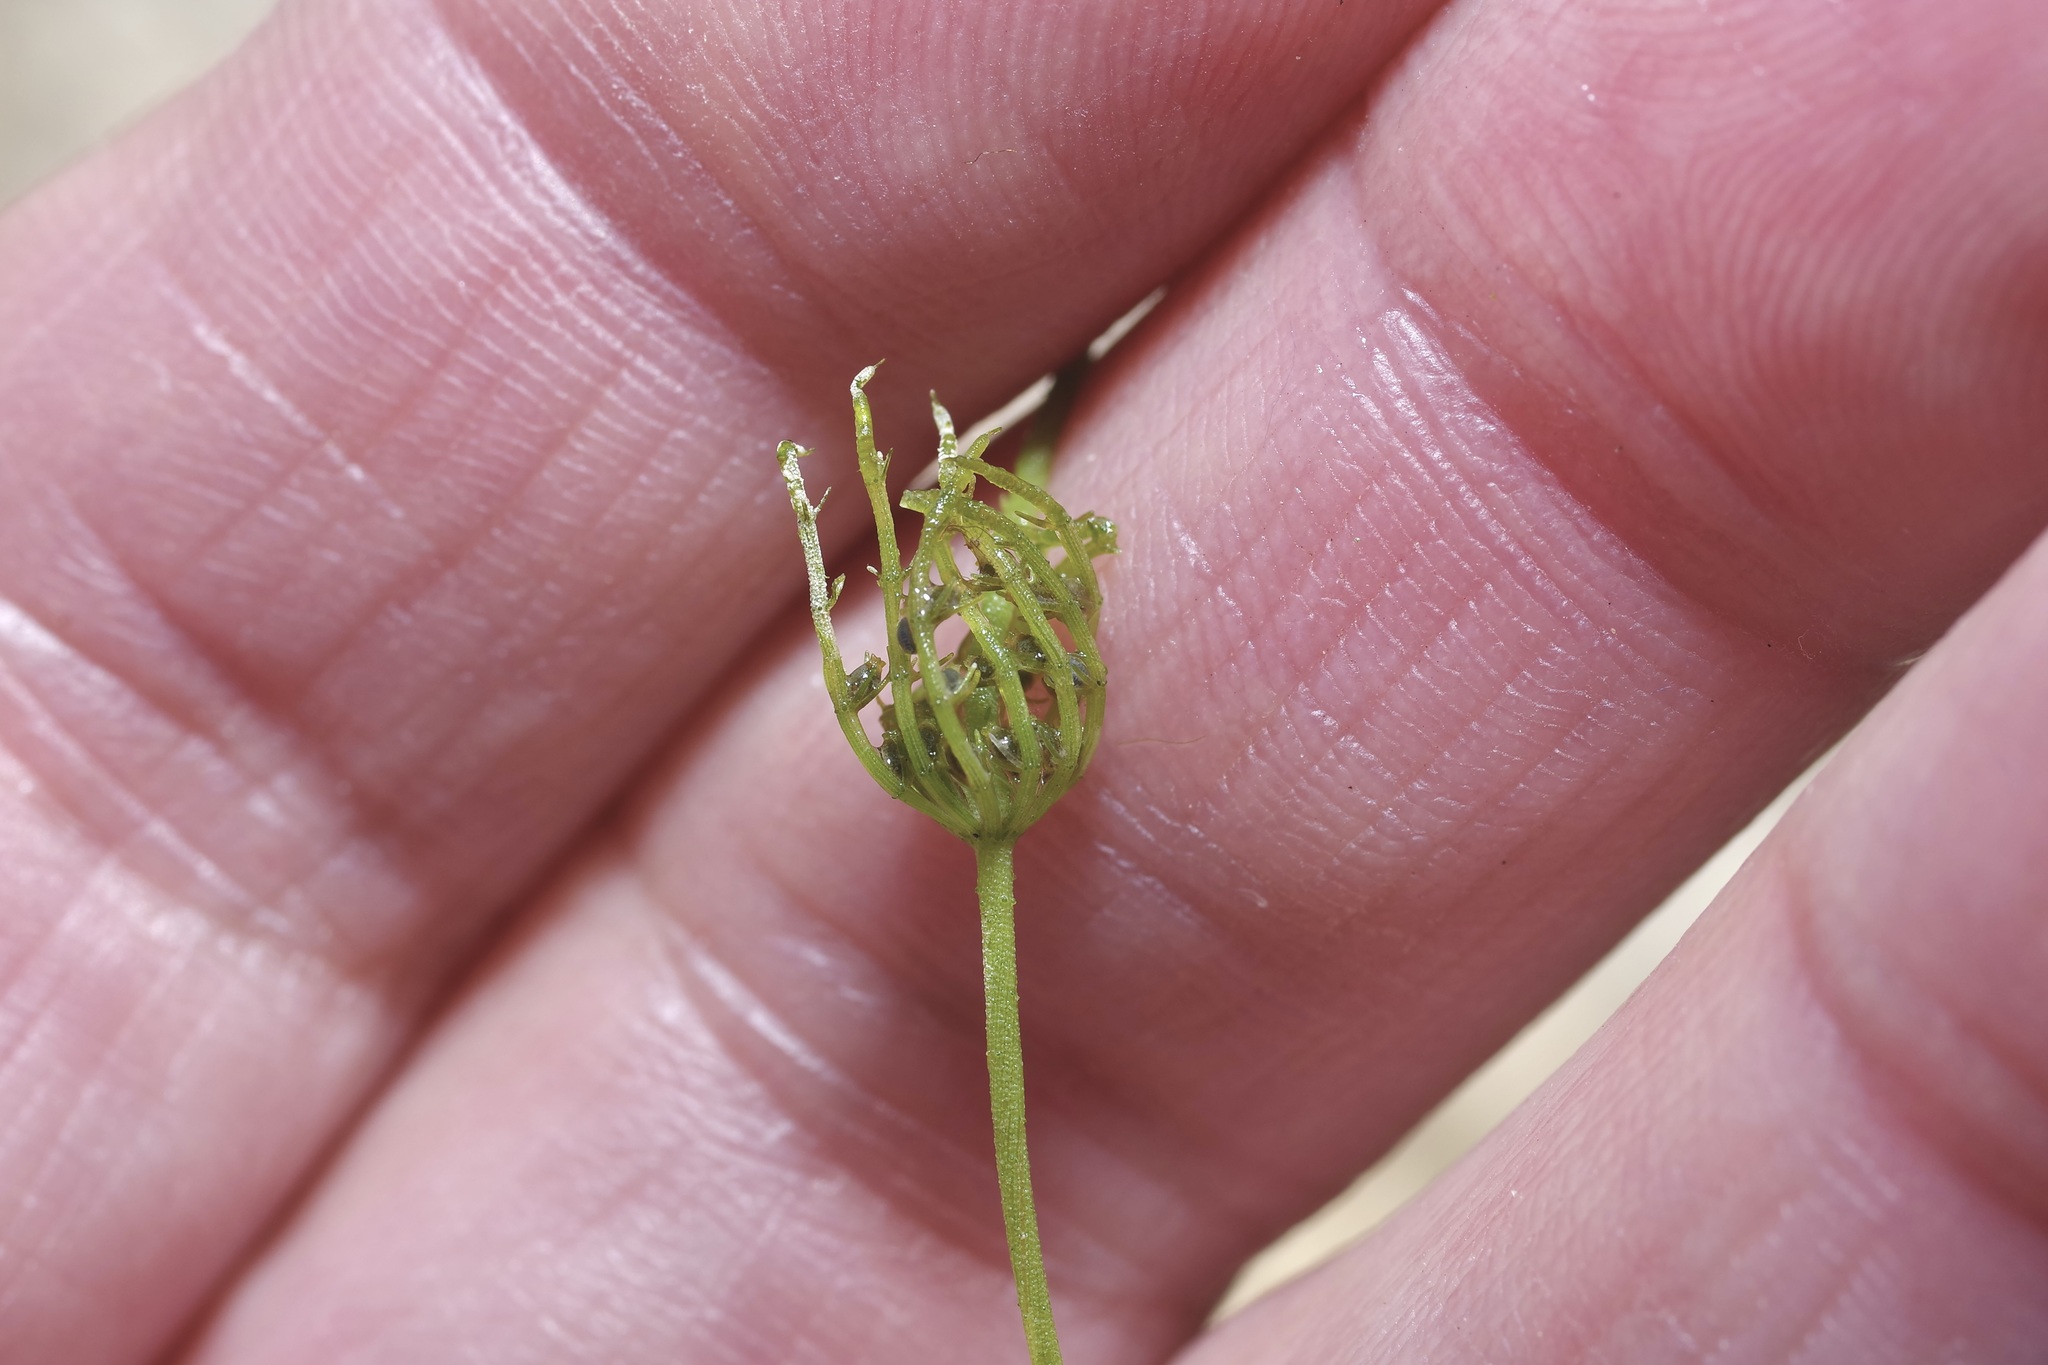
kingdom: Plantae
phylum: Charophyta
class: Charophyceae
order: Charales
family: Characeae
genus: Chara
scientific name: Chara contraria
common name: Opposite stonewort
